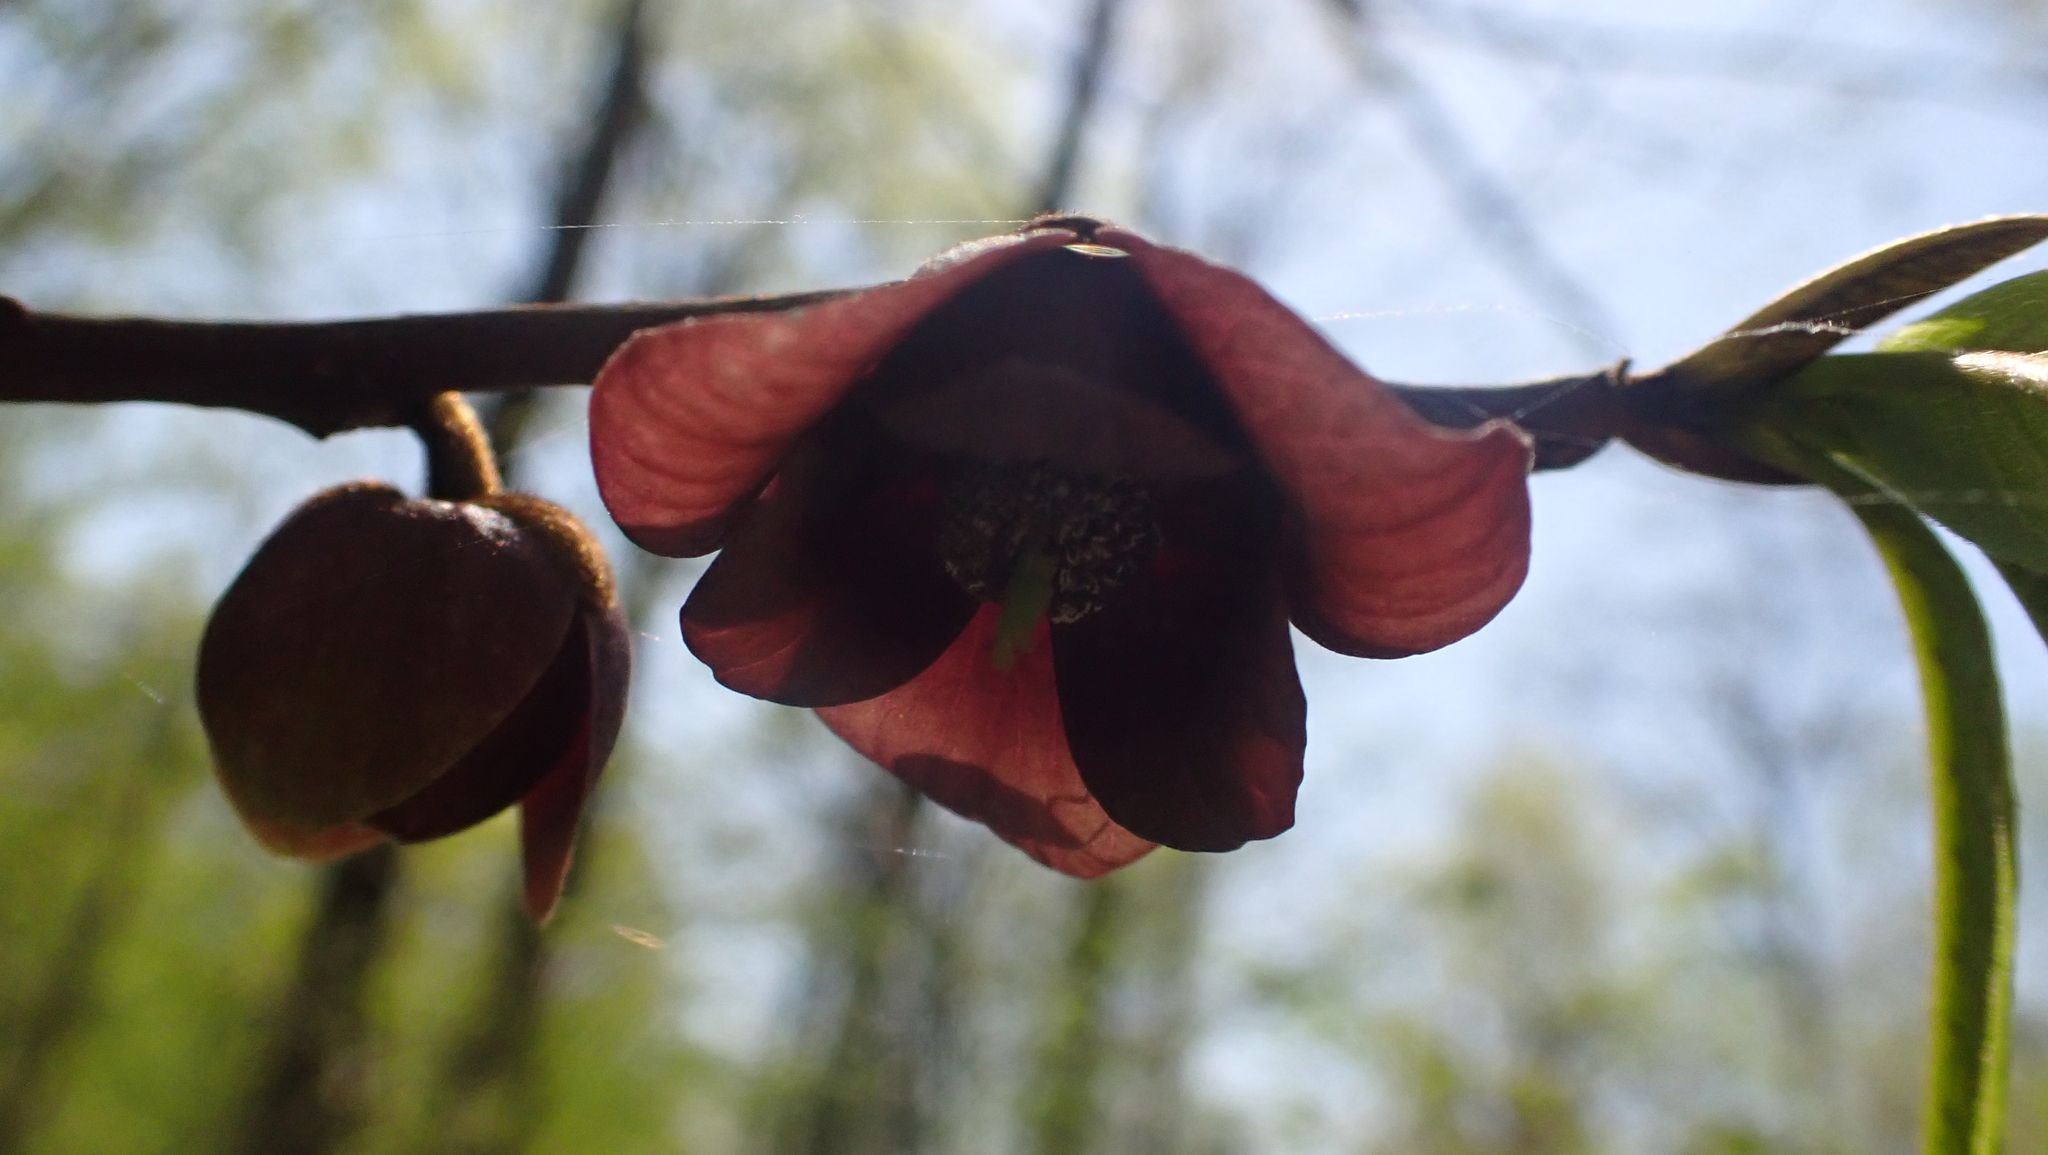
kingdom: Plantae
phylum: Tracheophyta
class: Magnoliopsida
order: Magnoliales
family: Annonaceae
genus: Asimina
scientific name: Asimina triloba
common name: Dog-banana
